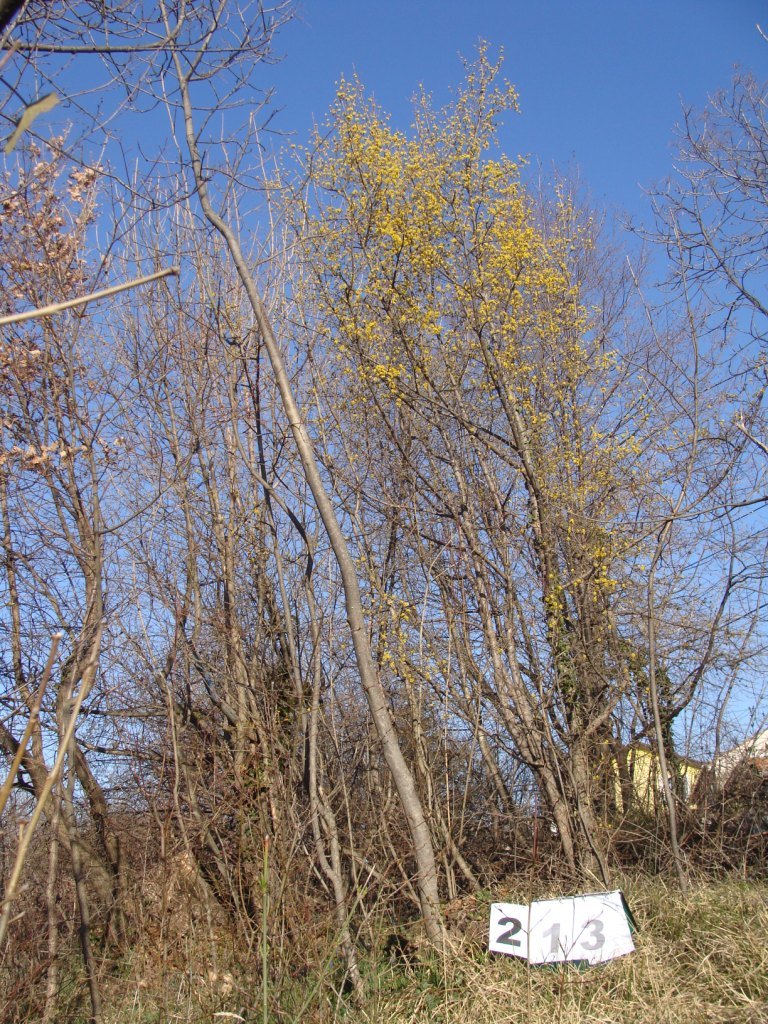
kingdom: Plantae
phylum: Tracheophyta
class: Magnoliopsida
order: Cornales
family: Cornaceae
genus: Cornus
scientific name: Cornus mas
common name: Cornelian-cherry
